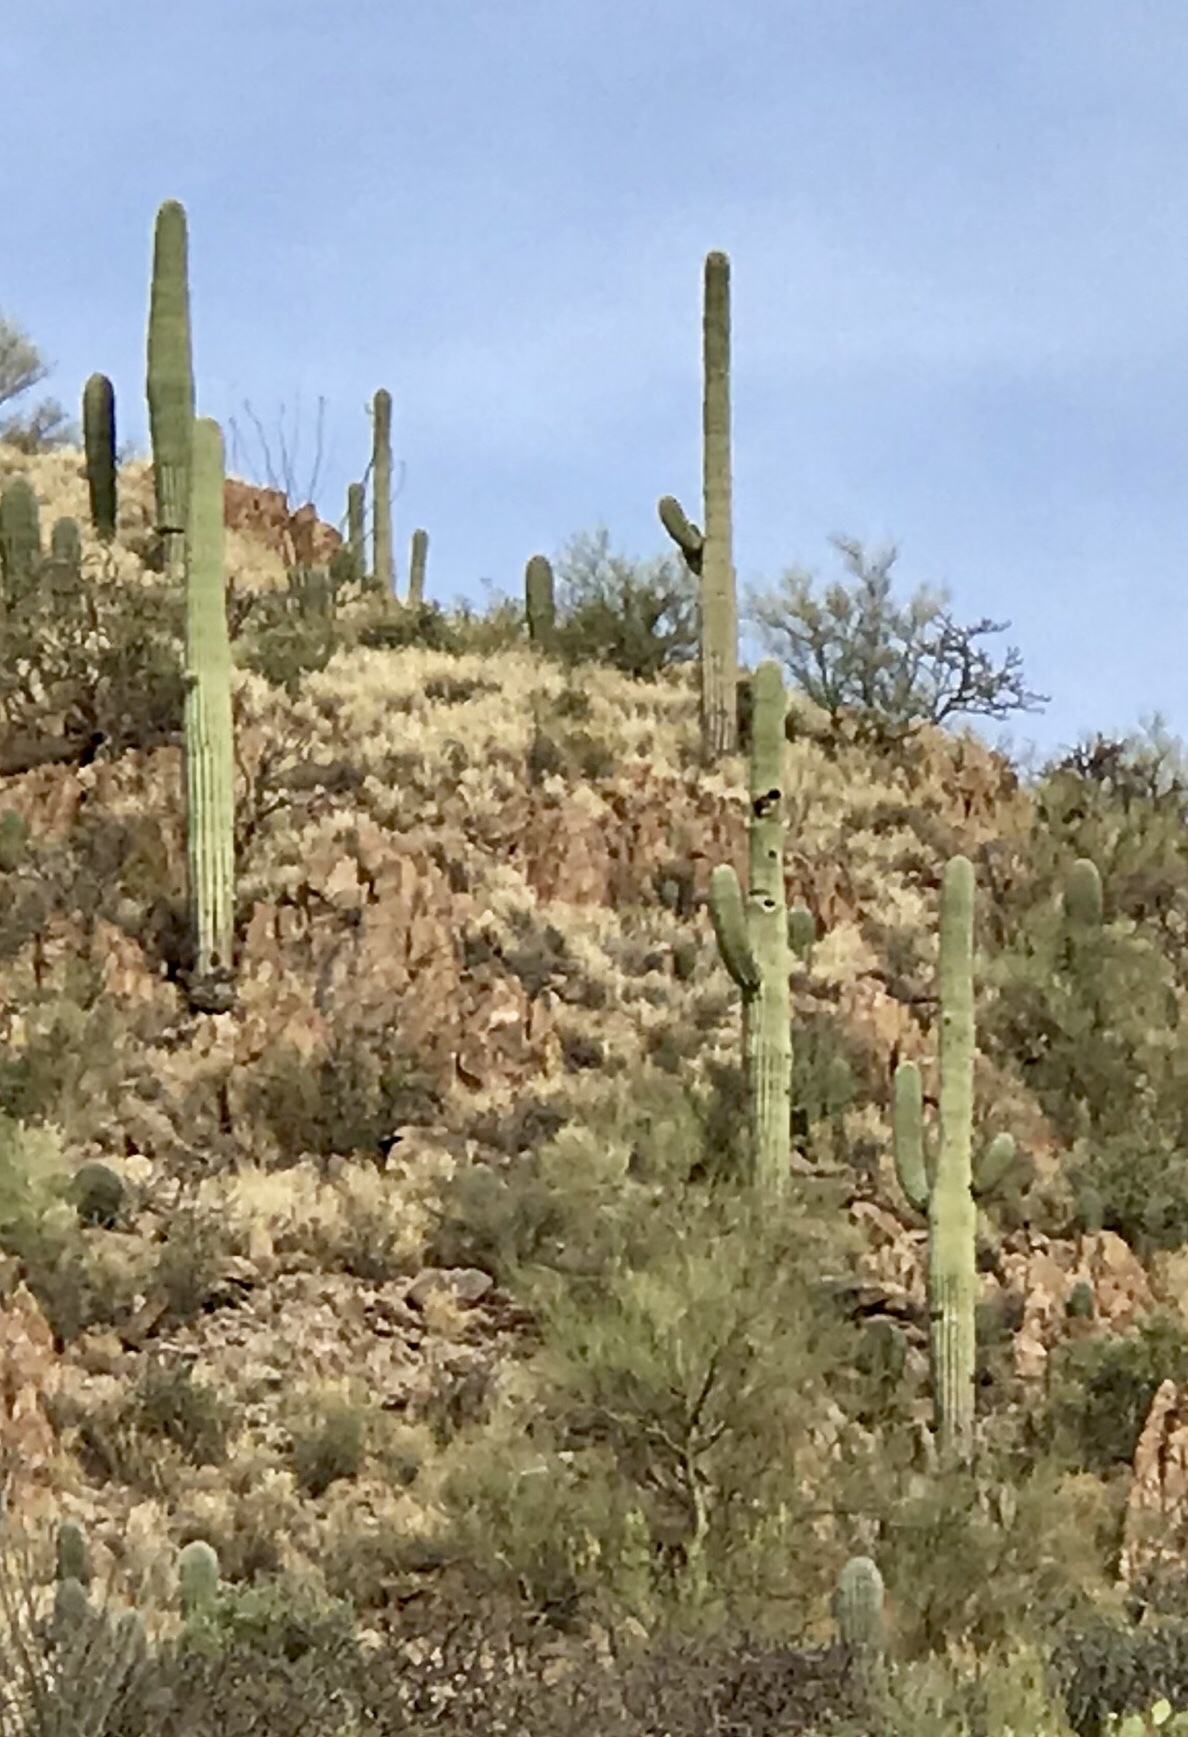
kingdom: Plantae
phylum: Tracheophyta
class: Magnoliopsida
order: Caryophyllales
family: Cactaceae
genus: Carnegiea
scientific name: Carnegiea gigantea
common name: Saguaro
